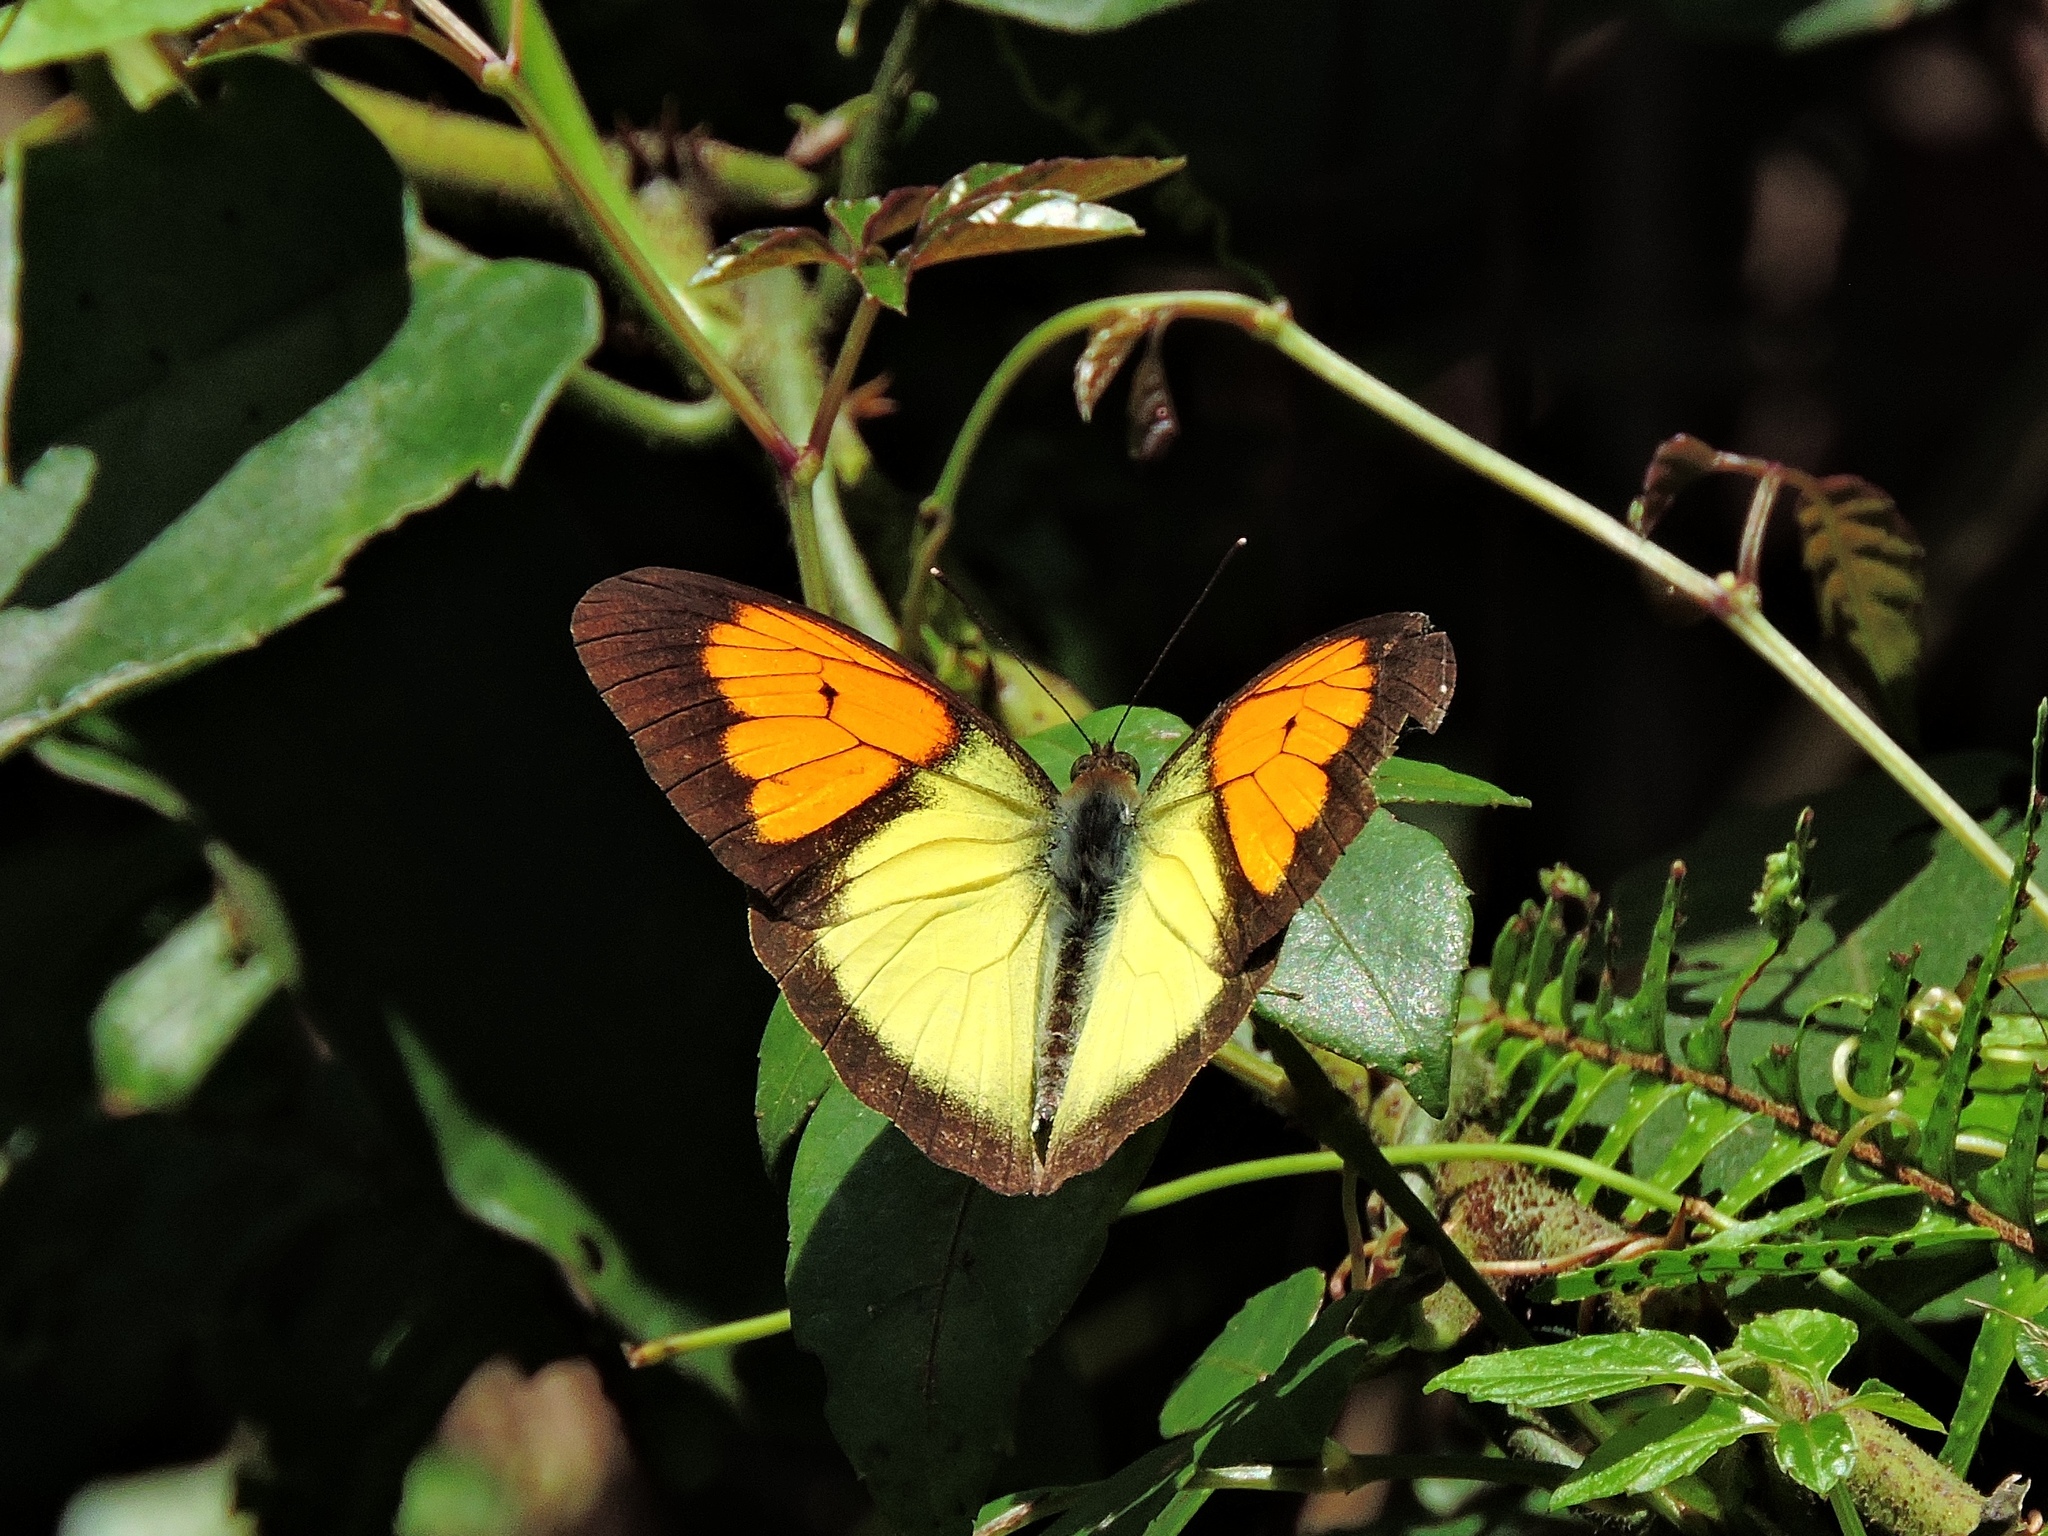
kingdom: Animalia
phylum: Arthropoda
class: Insecta
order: Lepidoptera
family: Pieridae
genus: Ixias
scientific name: Ixias pyrene
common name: Yellow orange tip
